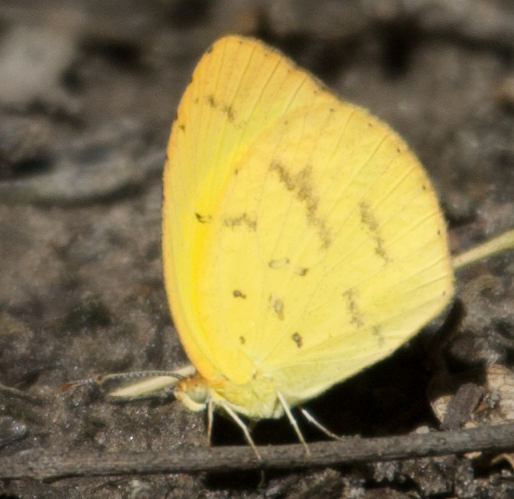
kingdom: Animalia
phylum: Arthropoda
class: Insecta
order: Lepidoptera
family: Pieridae
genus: Eurema
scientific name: Eurema brigitta
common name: Small grass yellow
